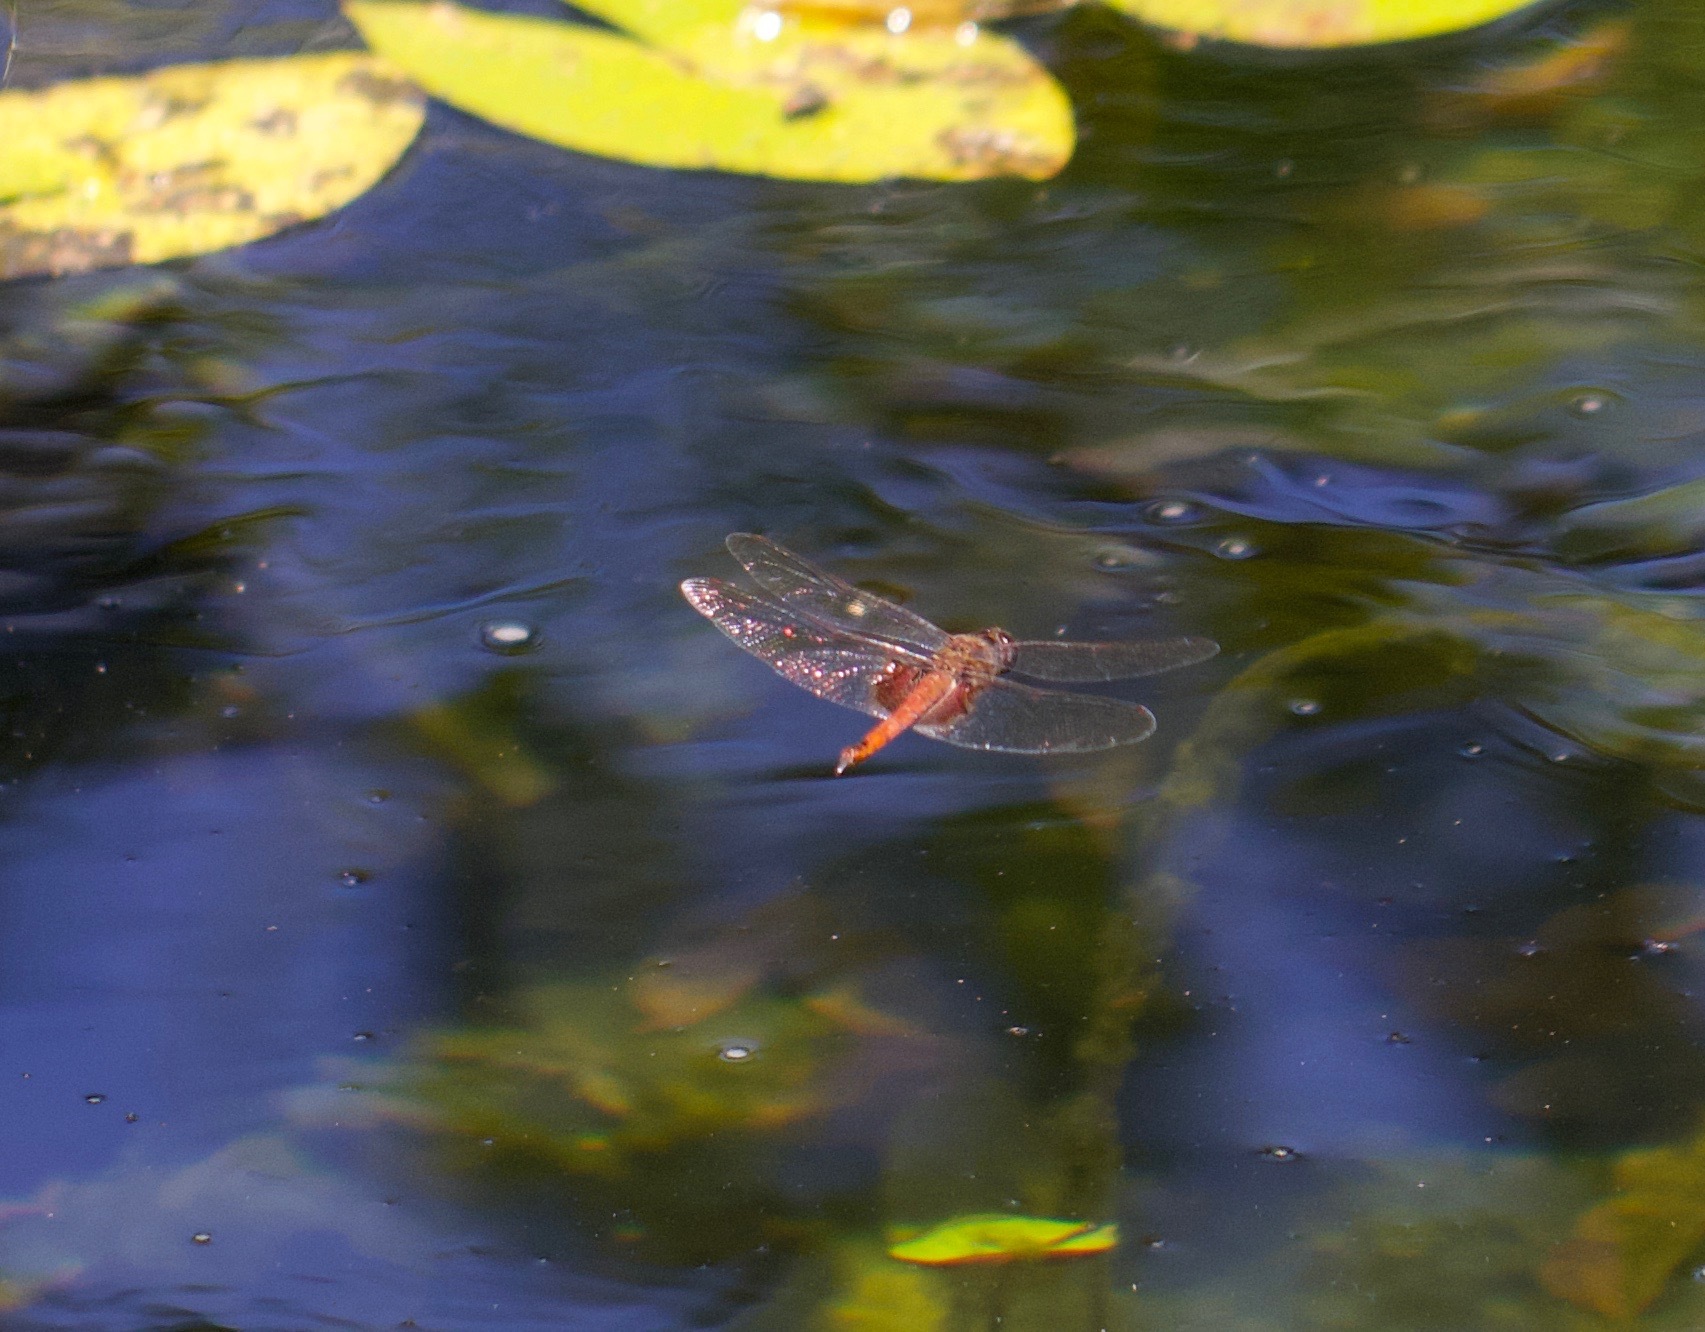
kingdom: Animalia
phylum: Arthropoda
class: Insecta
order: Odonata
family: Libellulidae
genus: Tramea
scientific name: Tramea limbata
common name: Ferruginous glider
